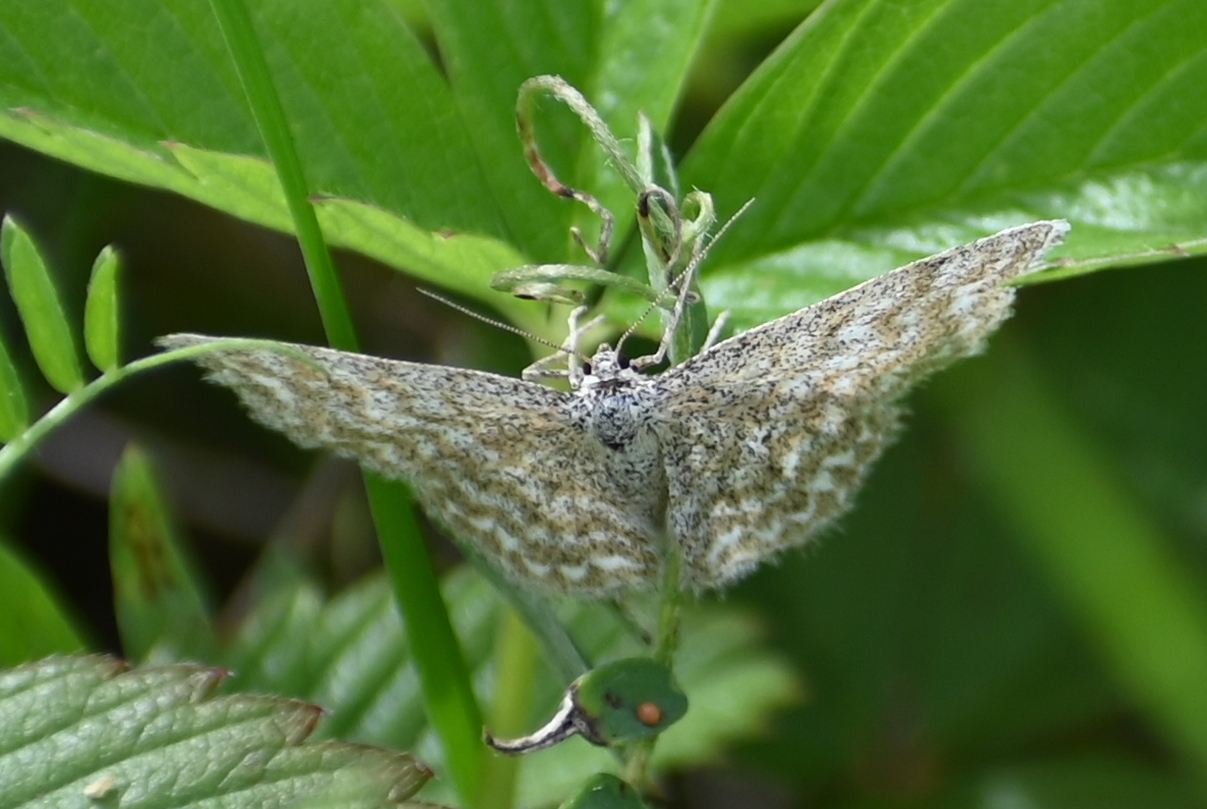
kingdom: Animalia
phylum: Arthropoda
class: Insecta
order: Lepidoptera
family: Geometridae
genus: Scopula
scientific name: Scopula immorata
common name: Lewes wave
